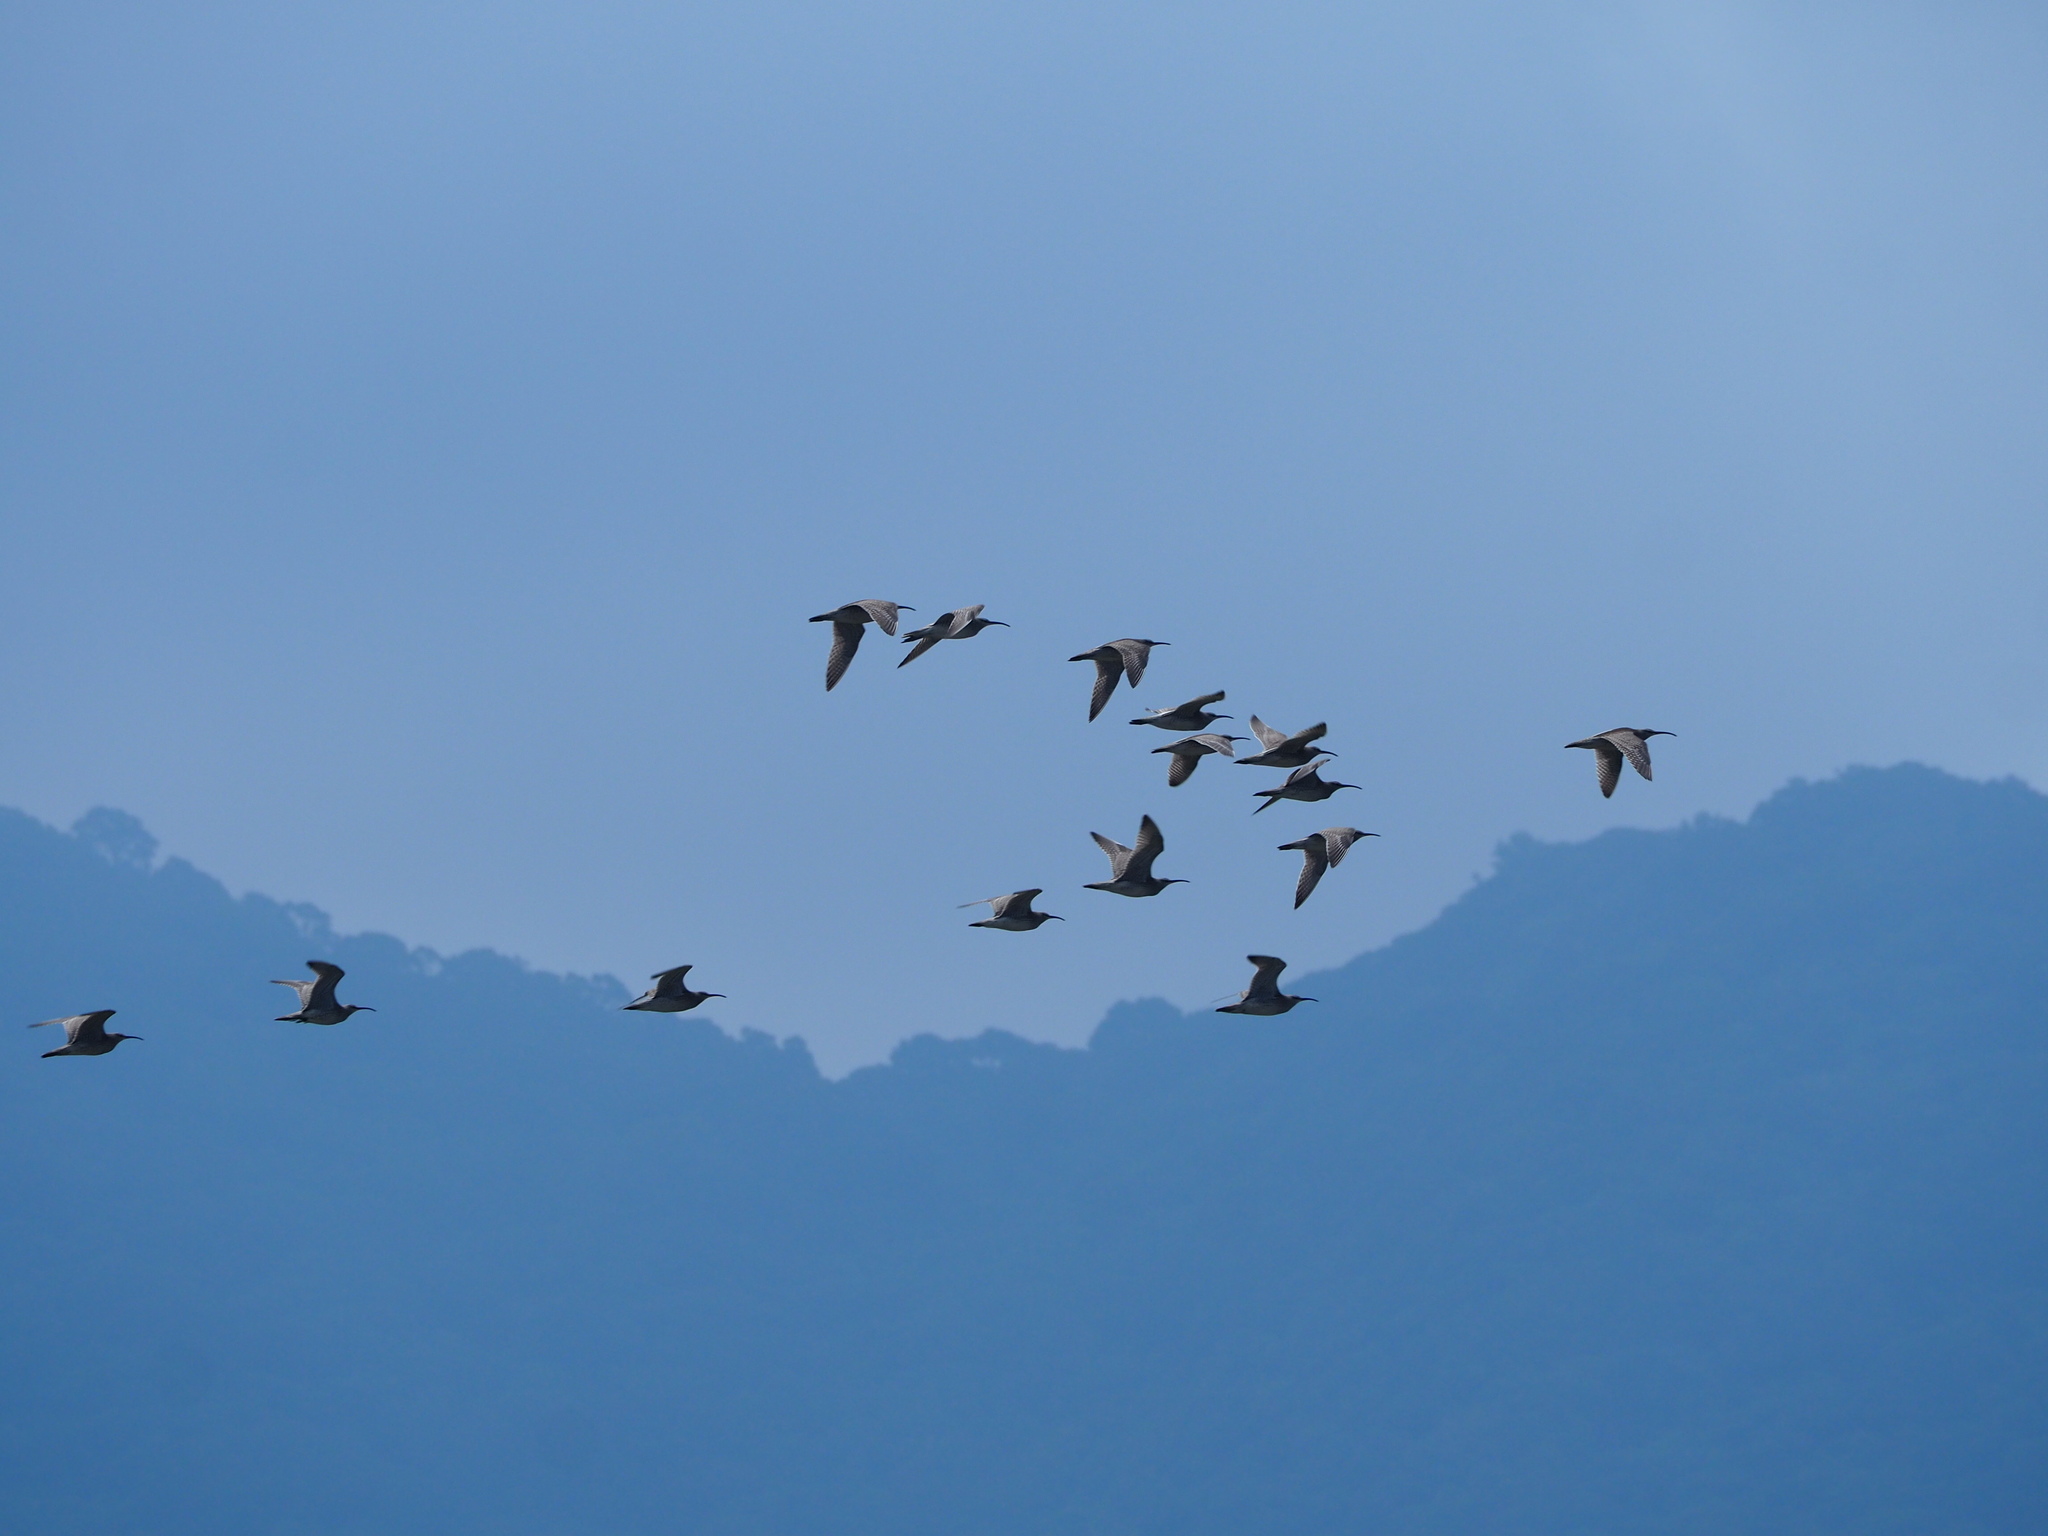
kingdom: Animalia
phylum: Chordata
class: Aves
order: Charadriiformes
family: Scolopacidae
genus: Numenius
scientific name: Numenius phaeopus
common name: Whimbrel
